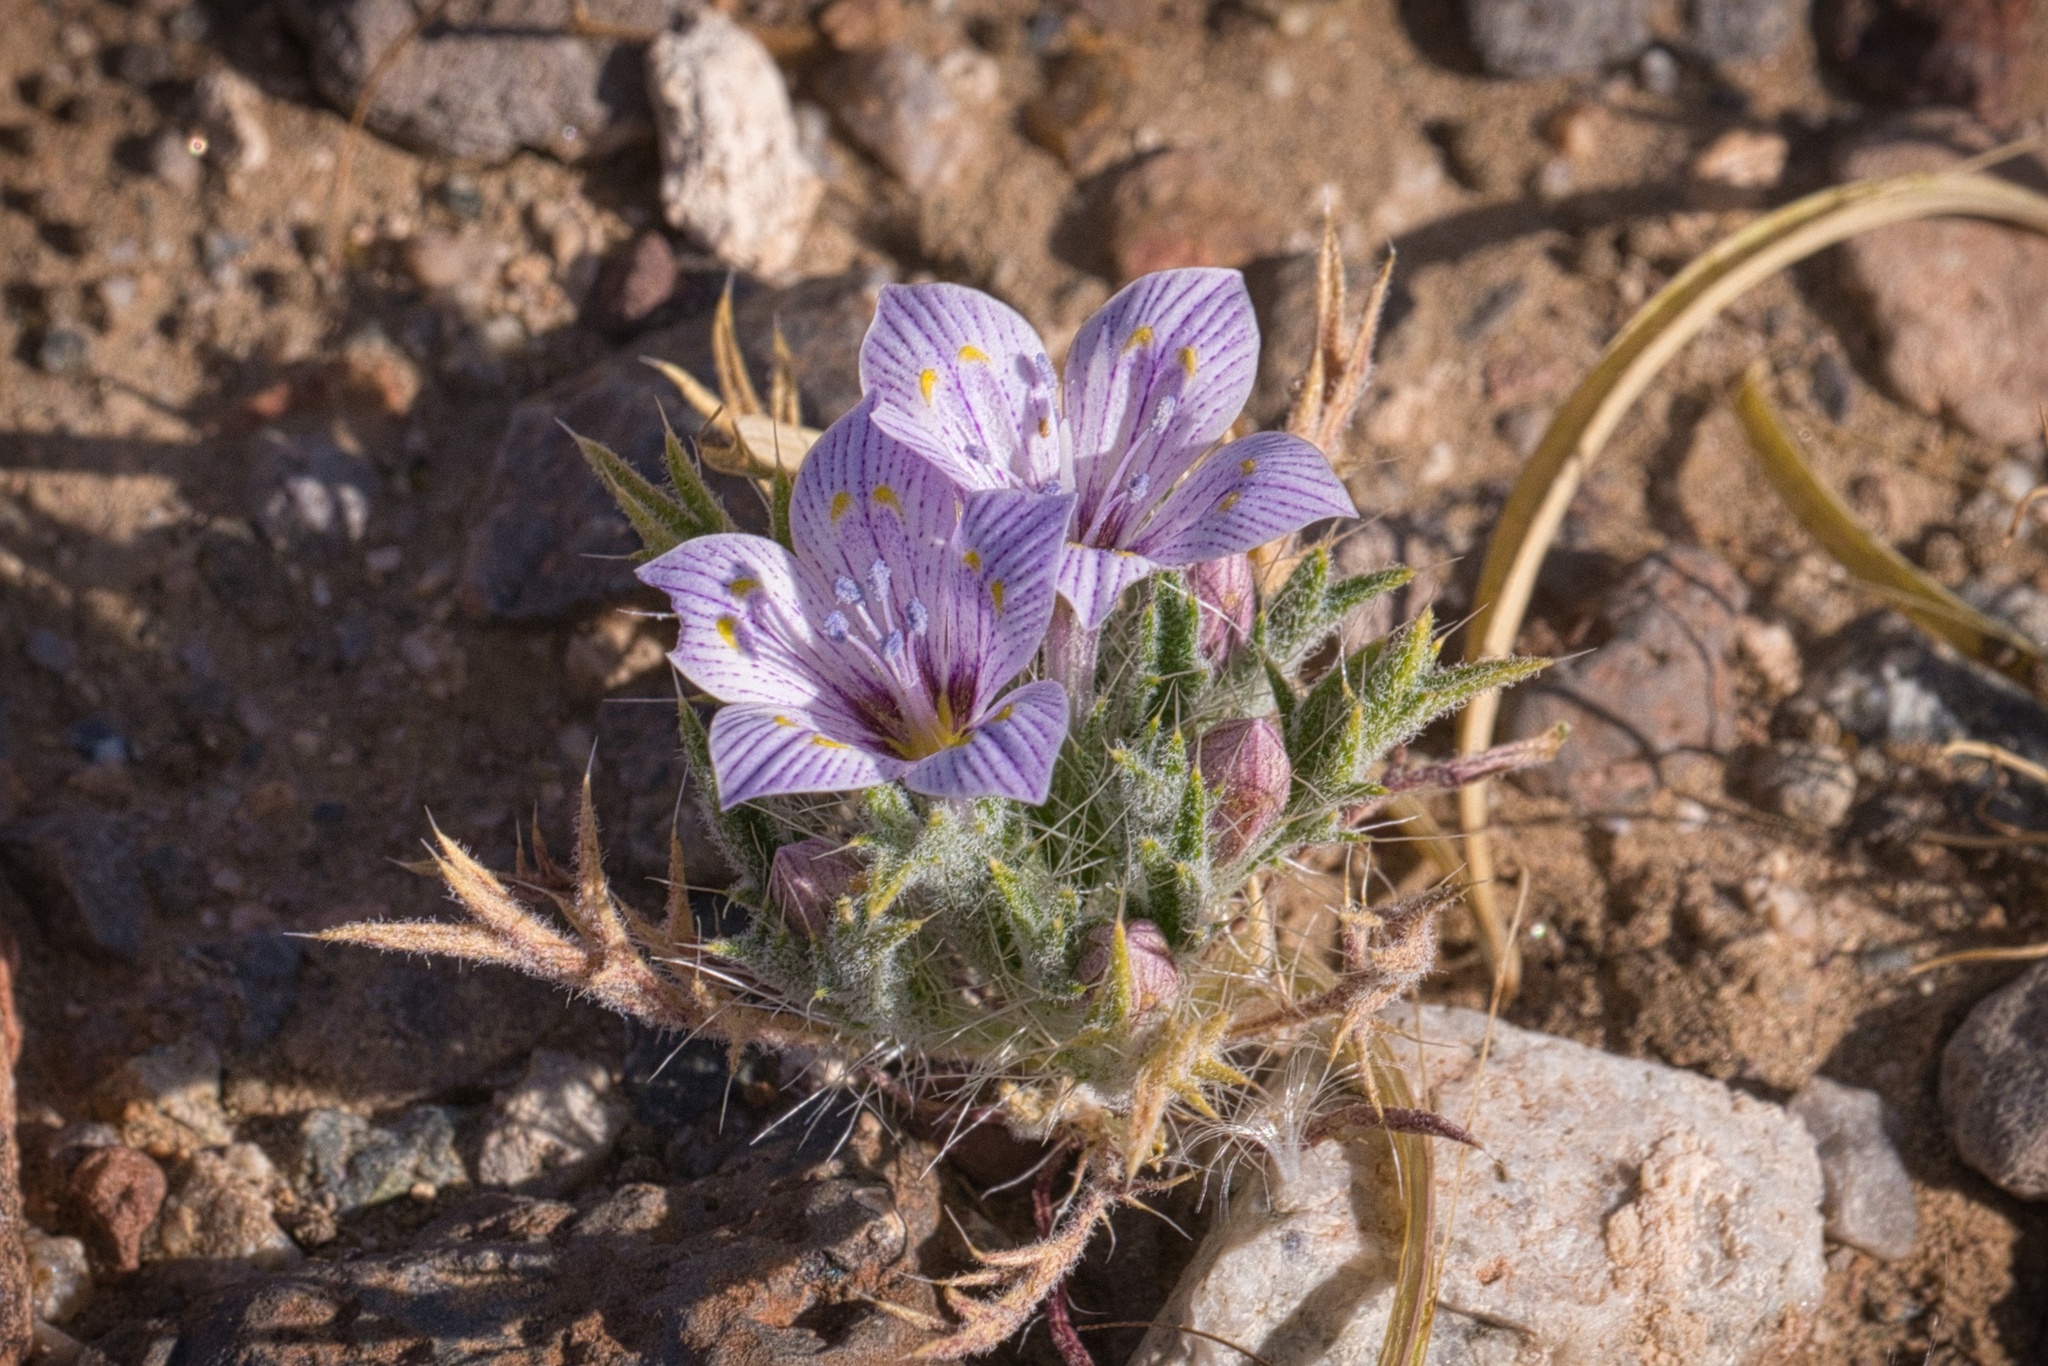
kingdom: Plantae
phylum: Tracheophyta
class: Magnoliopsida
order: Ericales
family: Polemoniaceae
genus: Langloisia
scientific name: Langloisia setosissima
